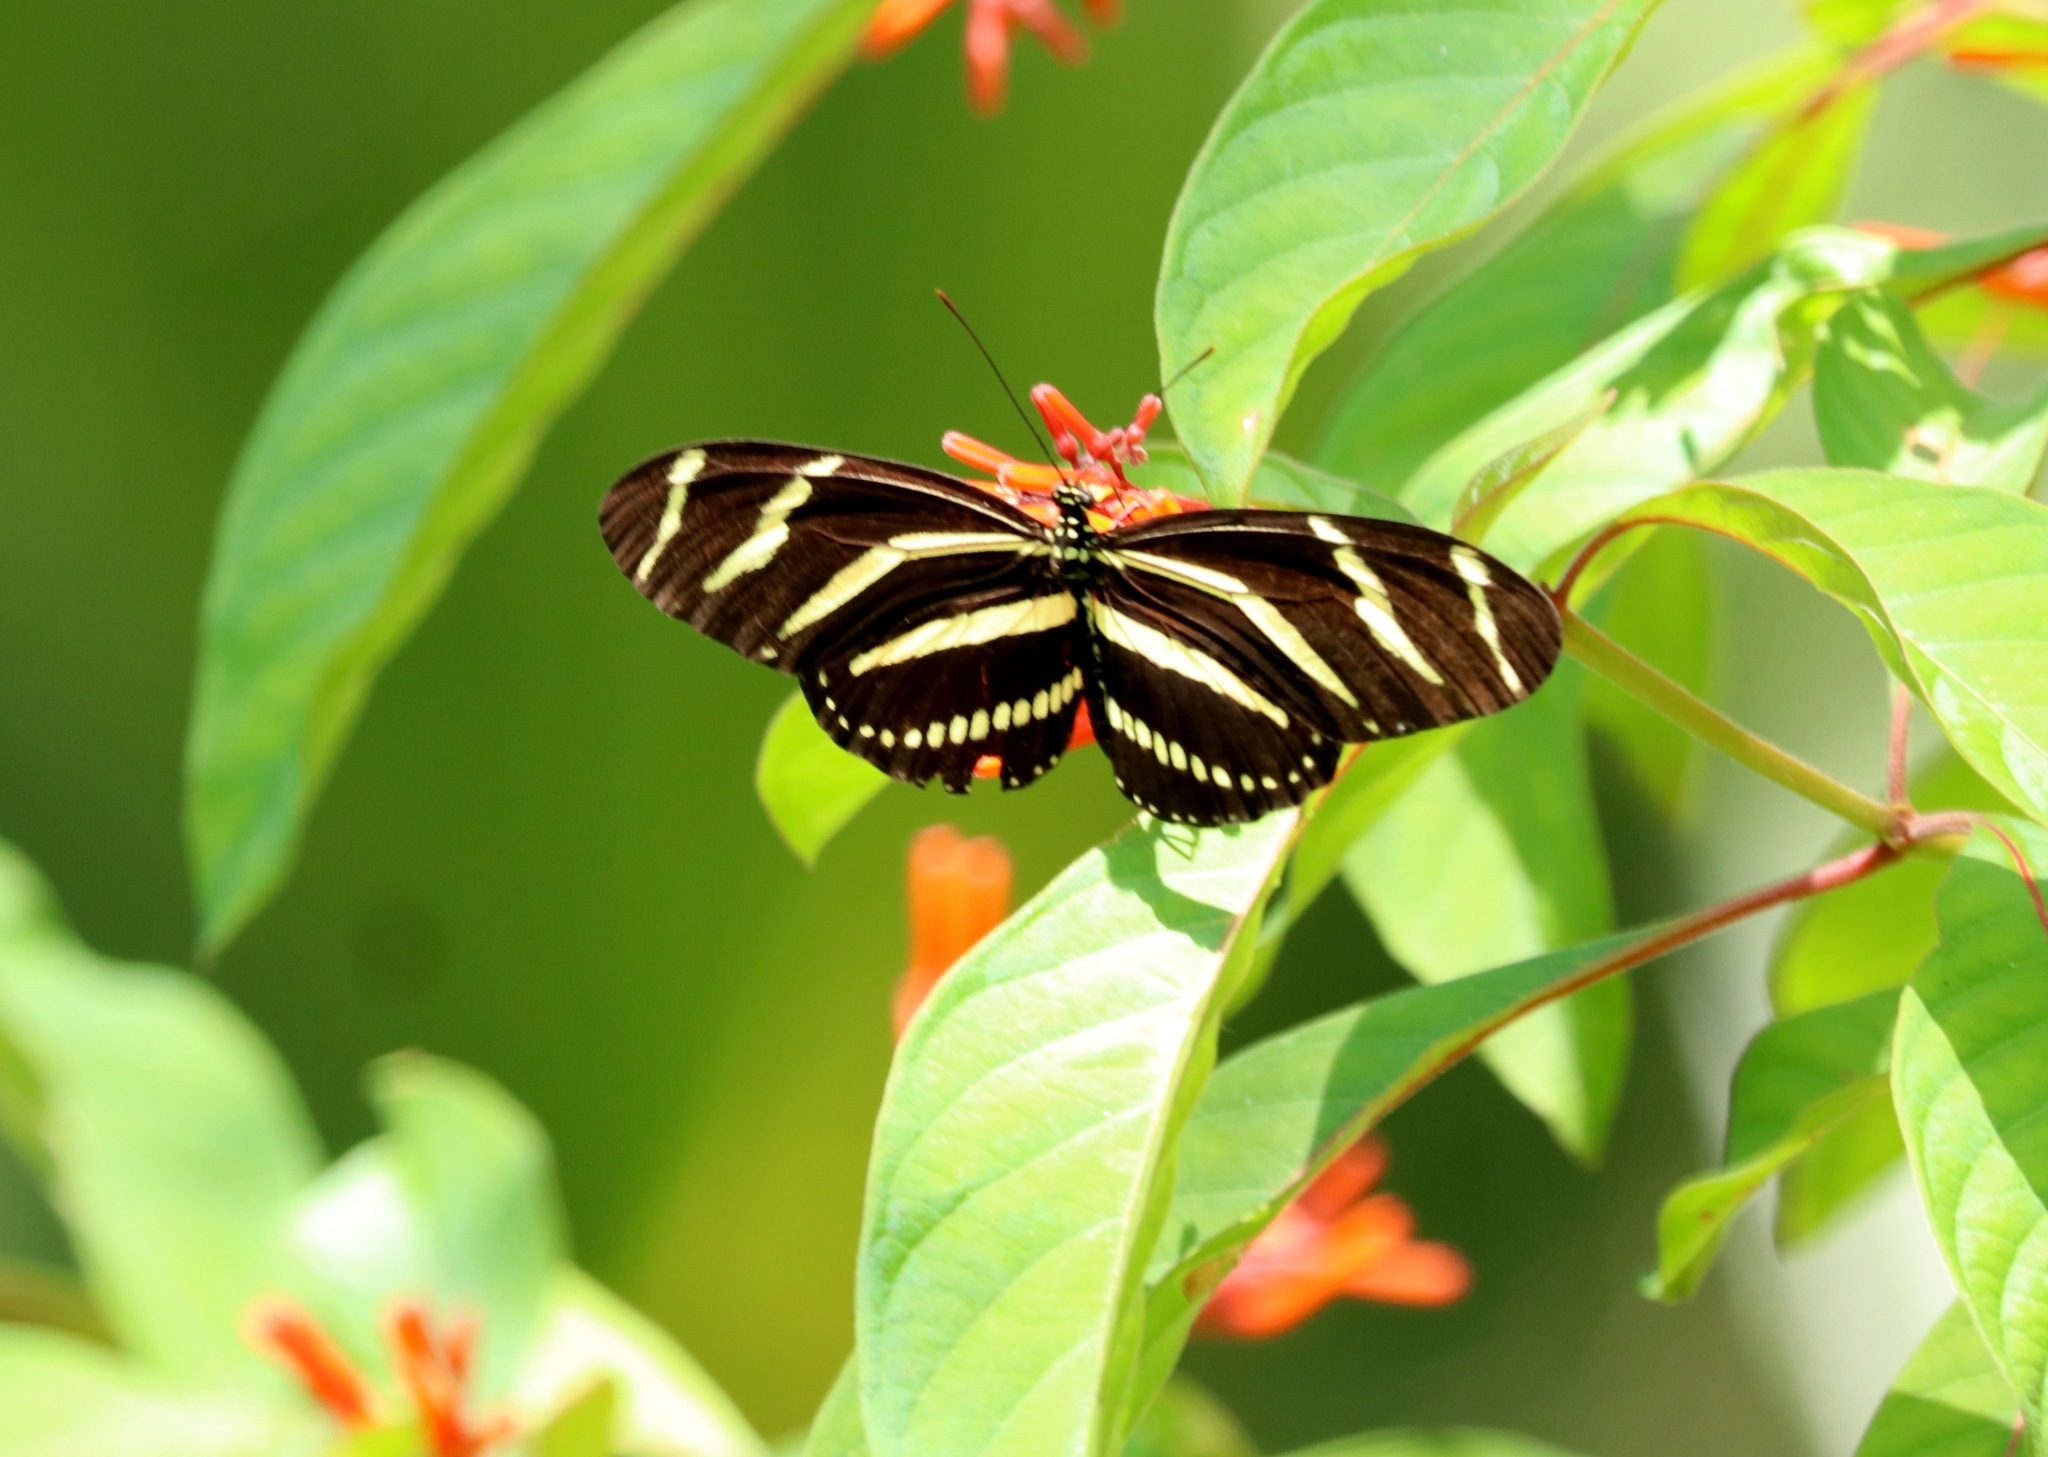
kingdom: Animalia
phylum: Arthropoda
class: Insecta
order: Lepidoptera
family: Nymphalidae
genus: Heliconius
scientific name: Heliconius charithonia
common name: Zebra long wing
